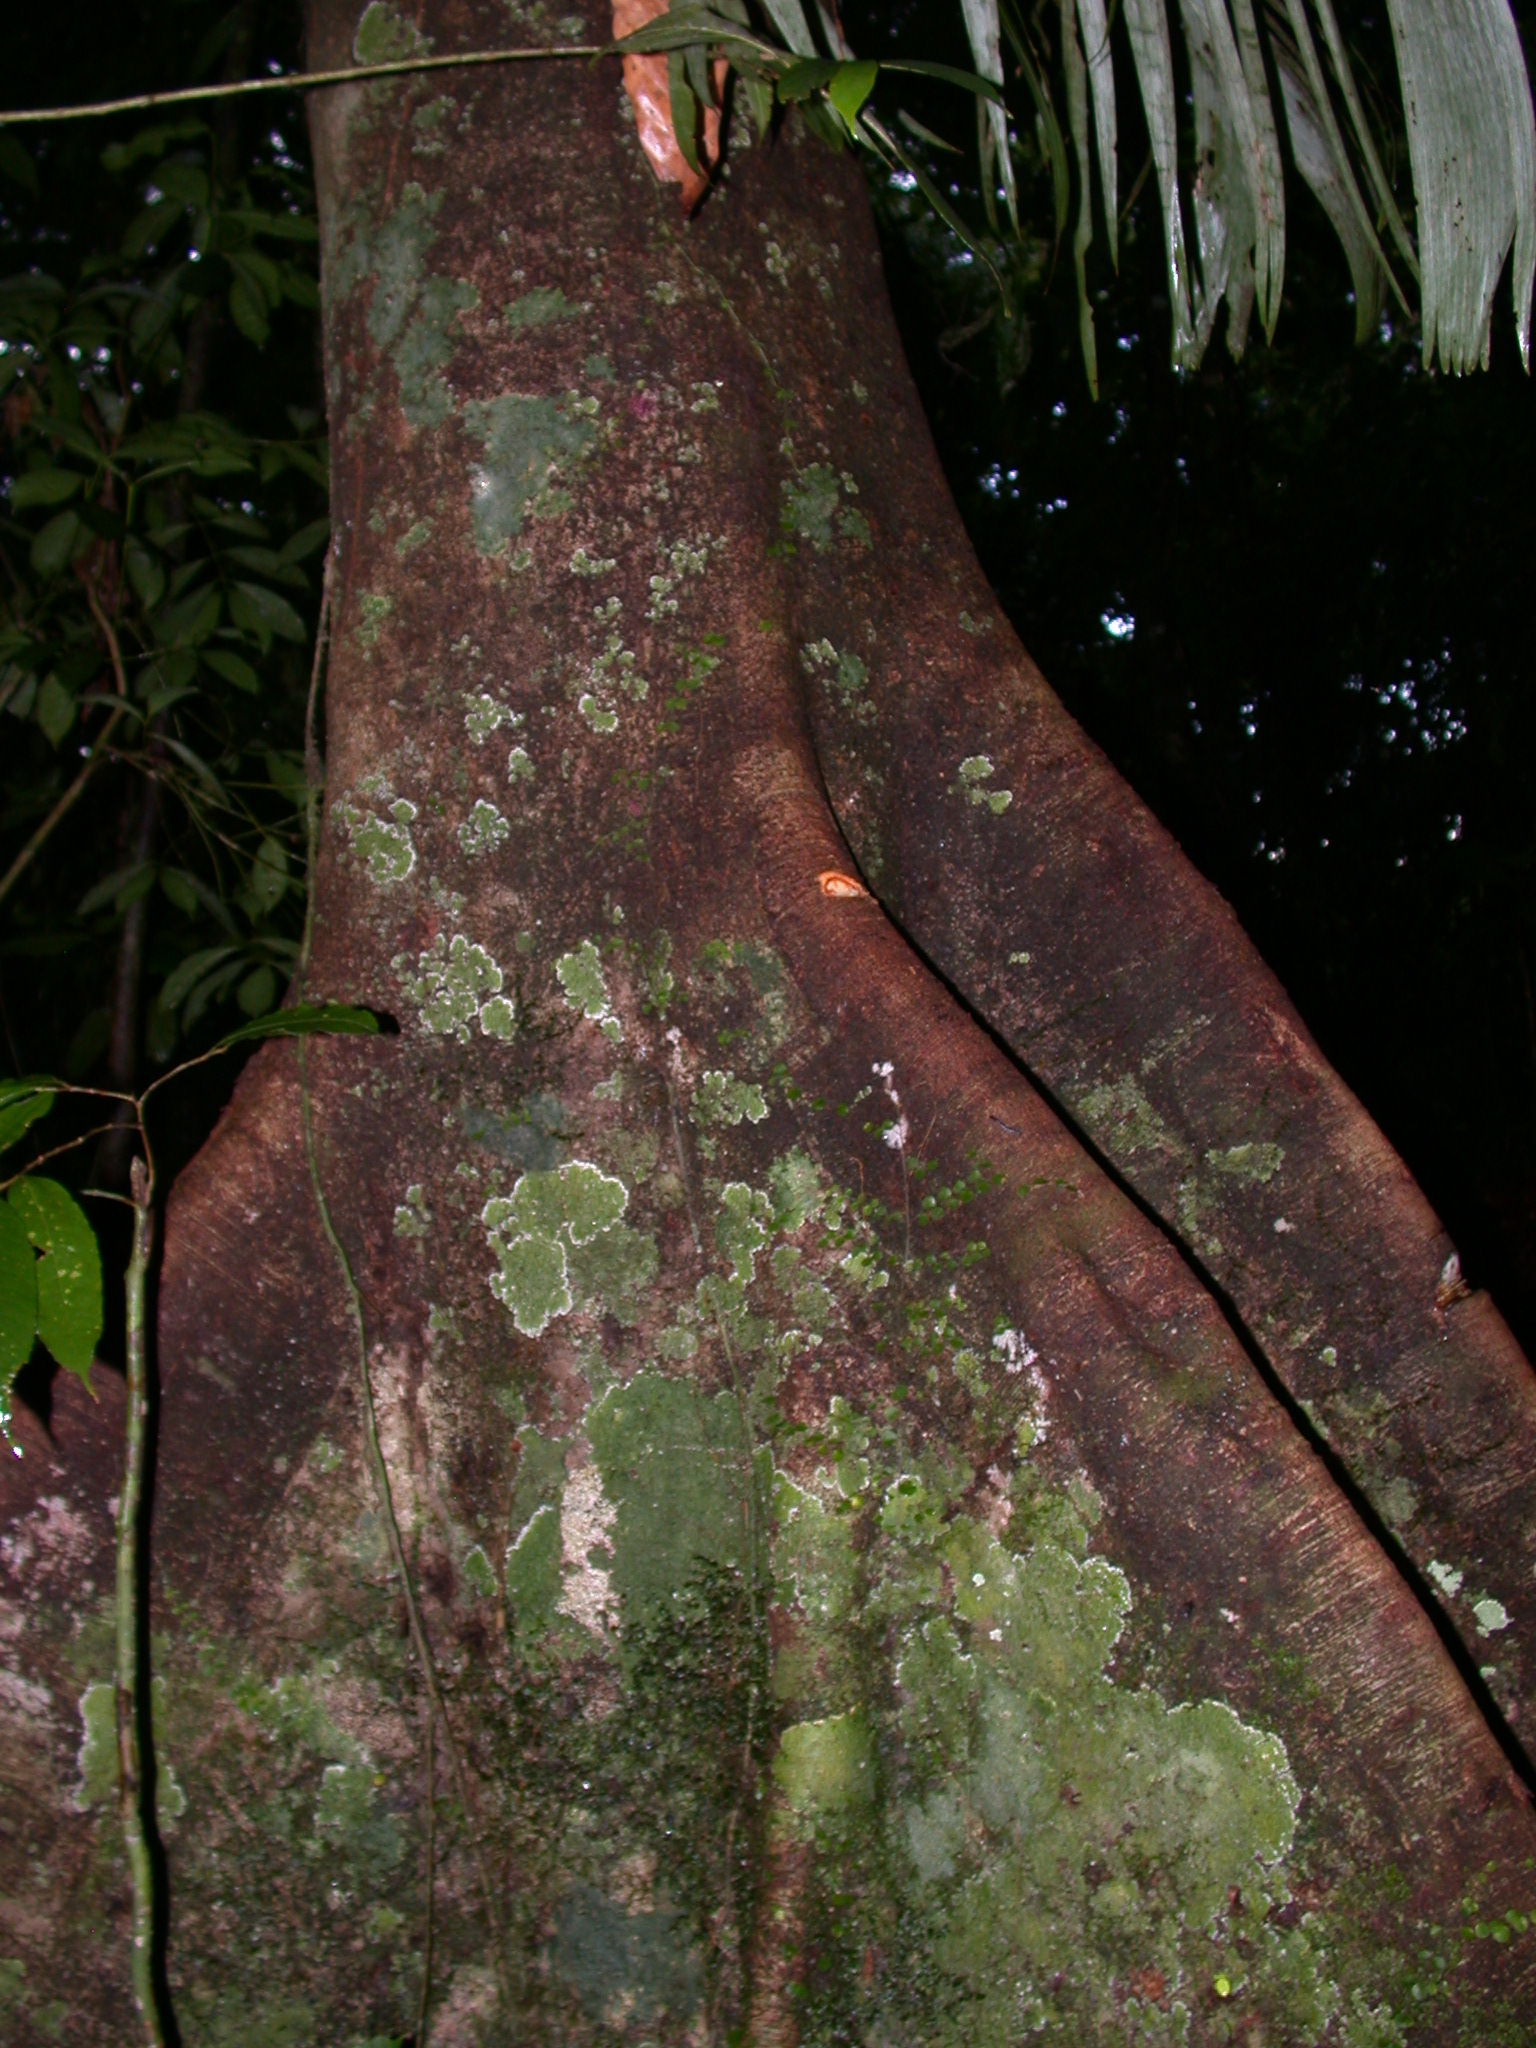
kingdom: Plantae
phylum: Tracheophyta
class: Magnoliopsida
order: Fabales
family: Fabaceae
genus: Dialium
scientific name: Dialium guianense
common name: Ironwood
